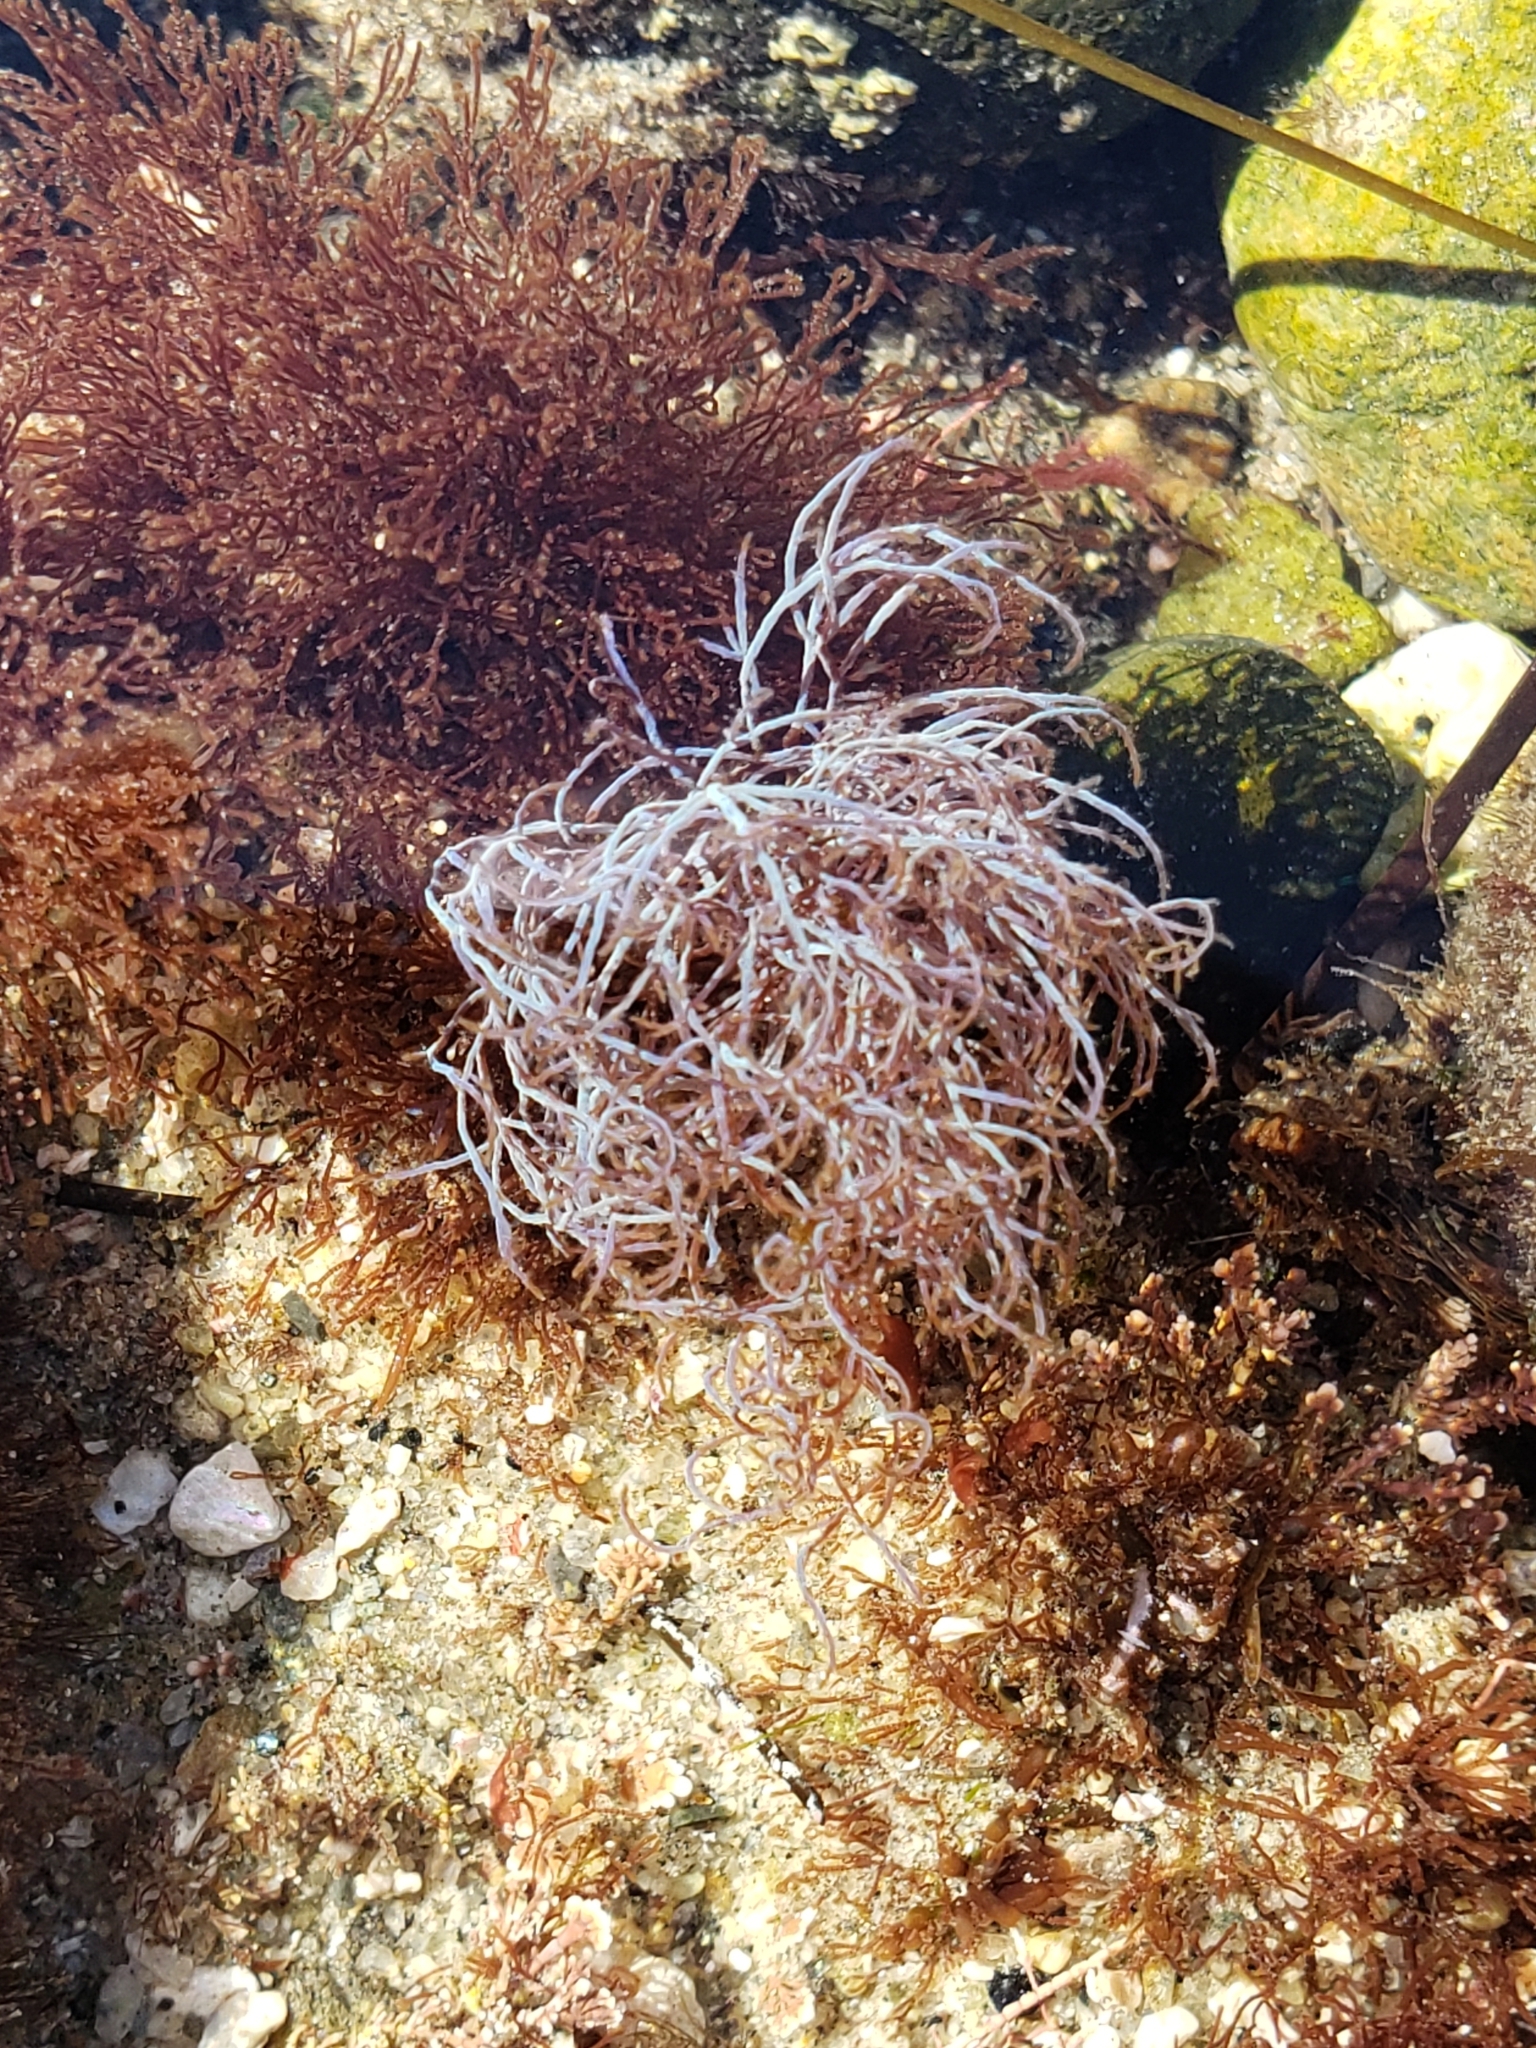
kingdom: Plantae
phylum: Rhodophyta
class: Florideophyceae
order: Ceramiales
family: Rhodomelaceae
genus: Chondria
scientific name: Chondria acrorhizophora
